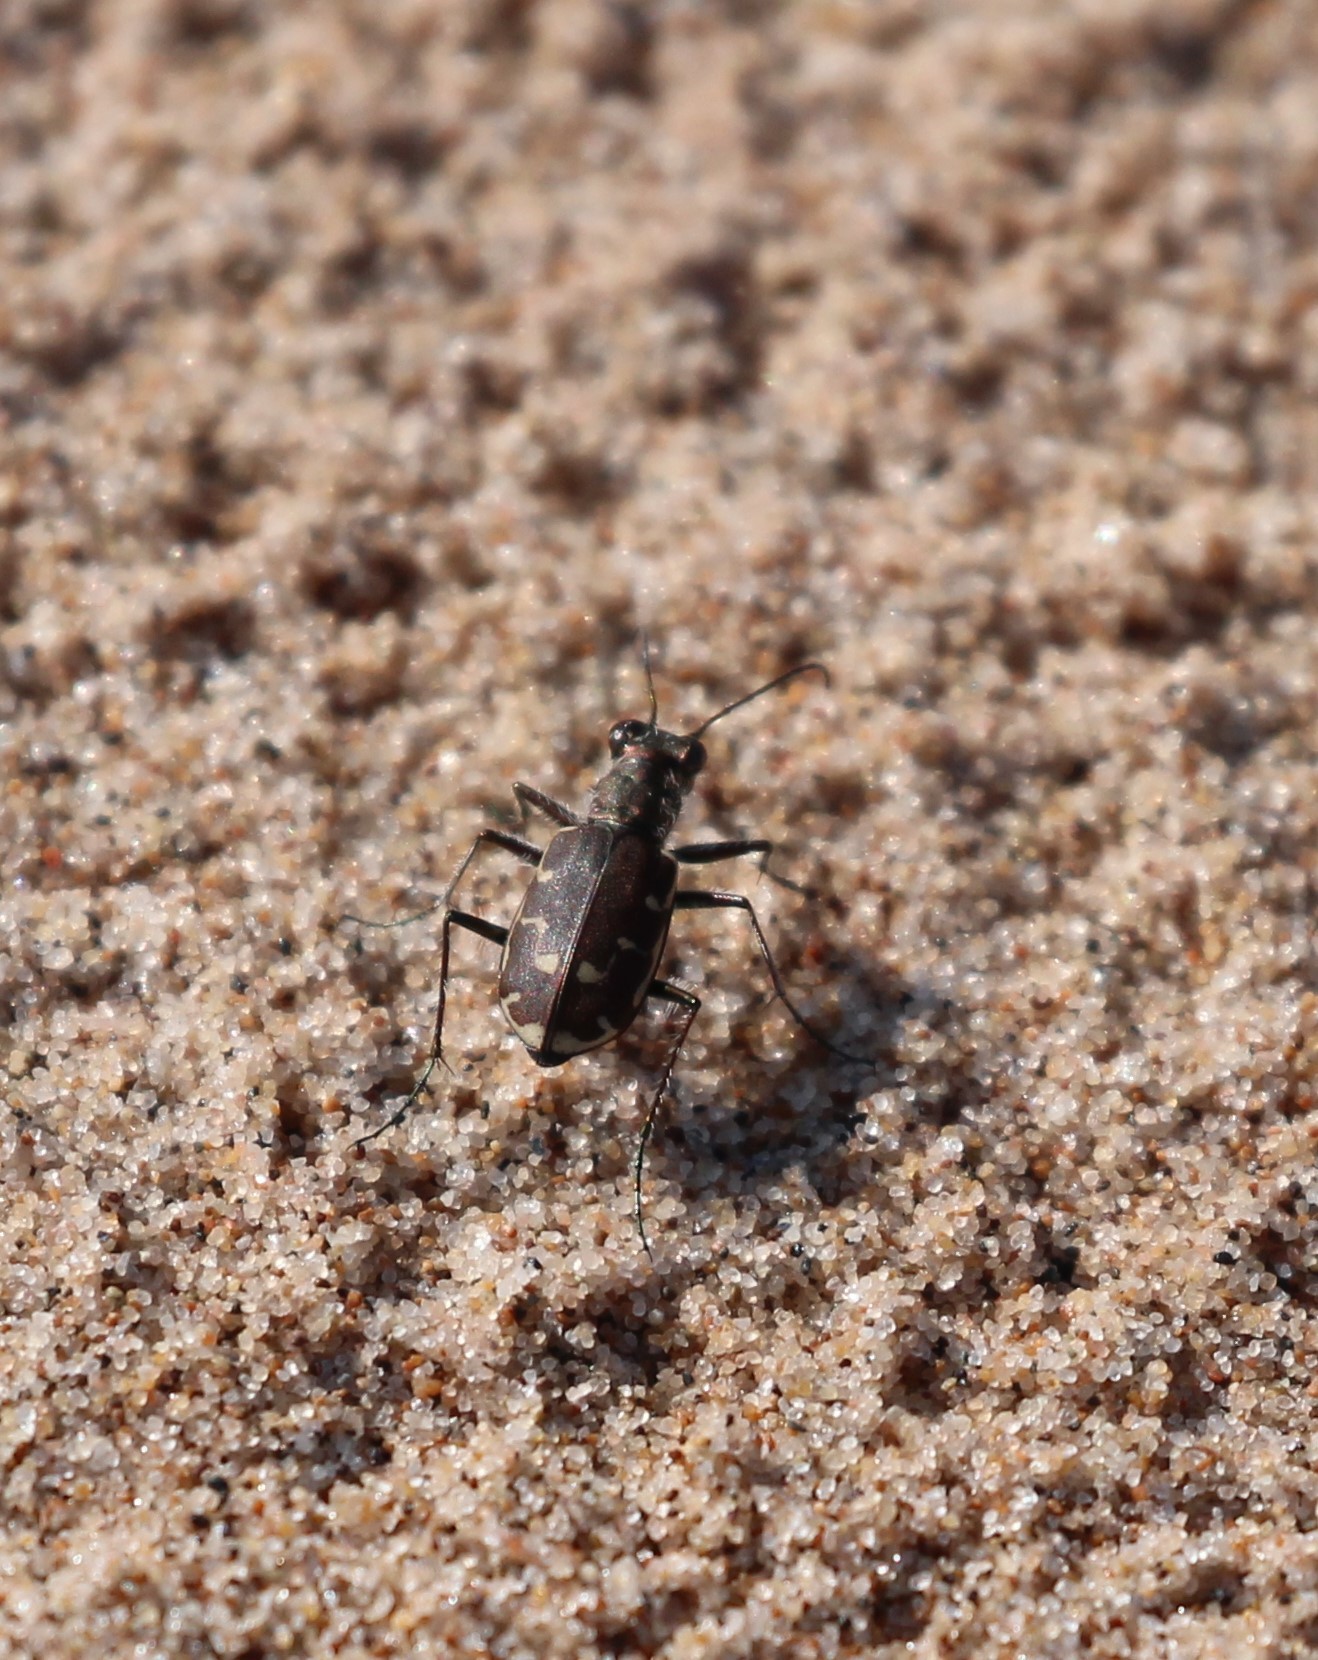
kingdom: Animalia
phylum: Arthropoda
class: Insecta
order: Coleoptera
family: Carabidae
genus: Cicindela
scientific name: Cicindela repanda
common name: Bronzed tiger beetle
